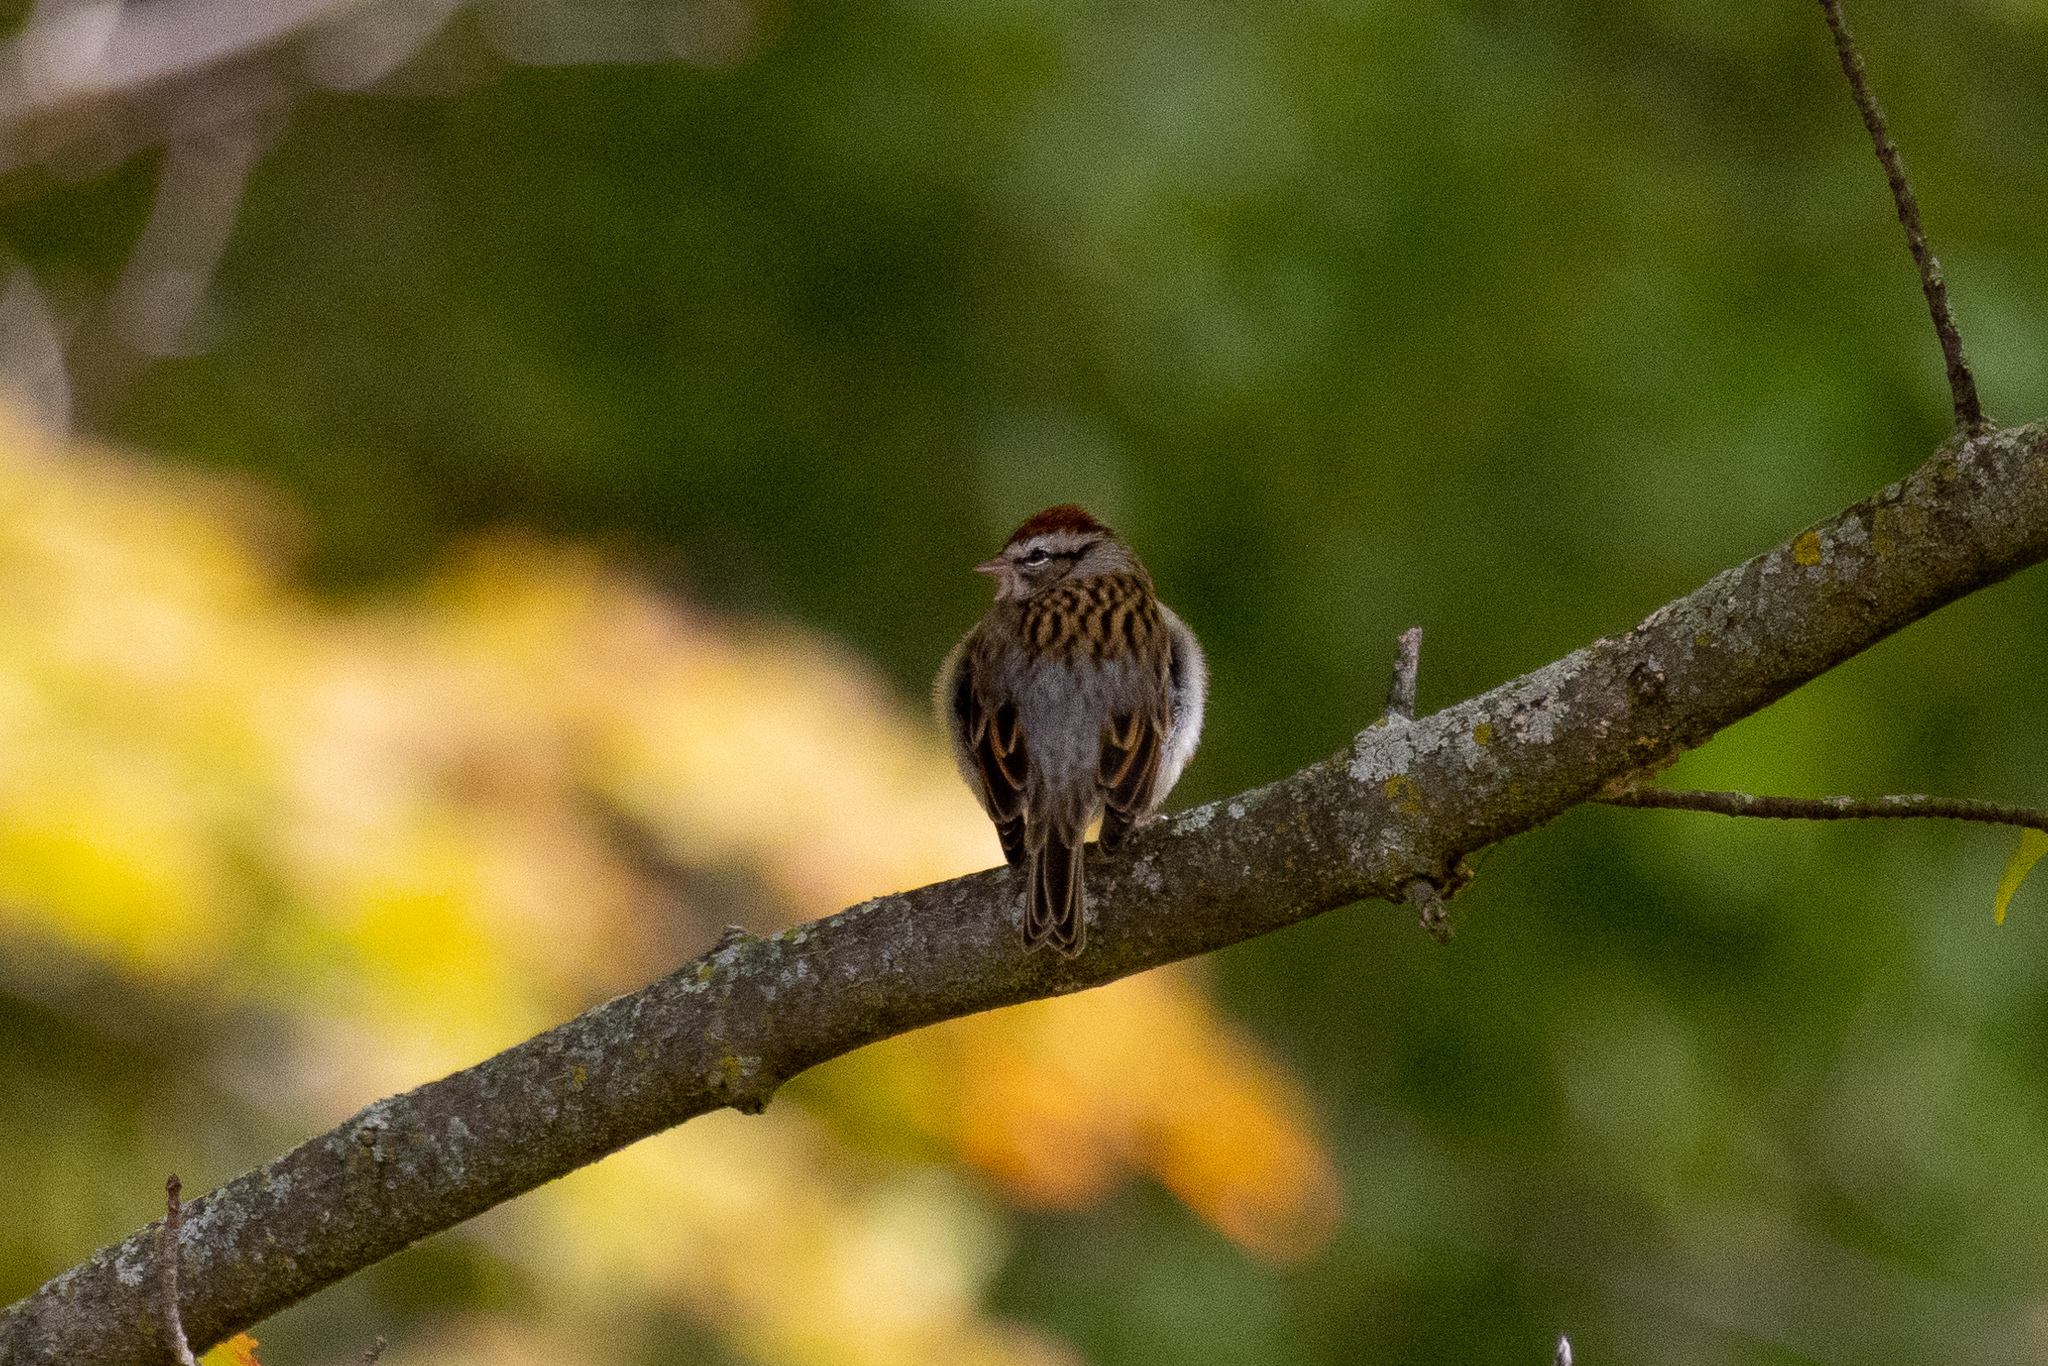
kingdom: Animalia
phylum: Chordata
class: Aves
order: Passeriformes
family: Passerellidae
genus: Spizella
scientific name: Spizella passerina
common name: Chipping sparrow
